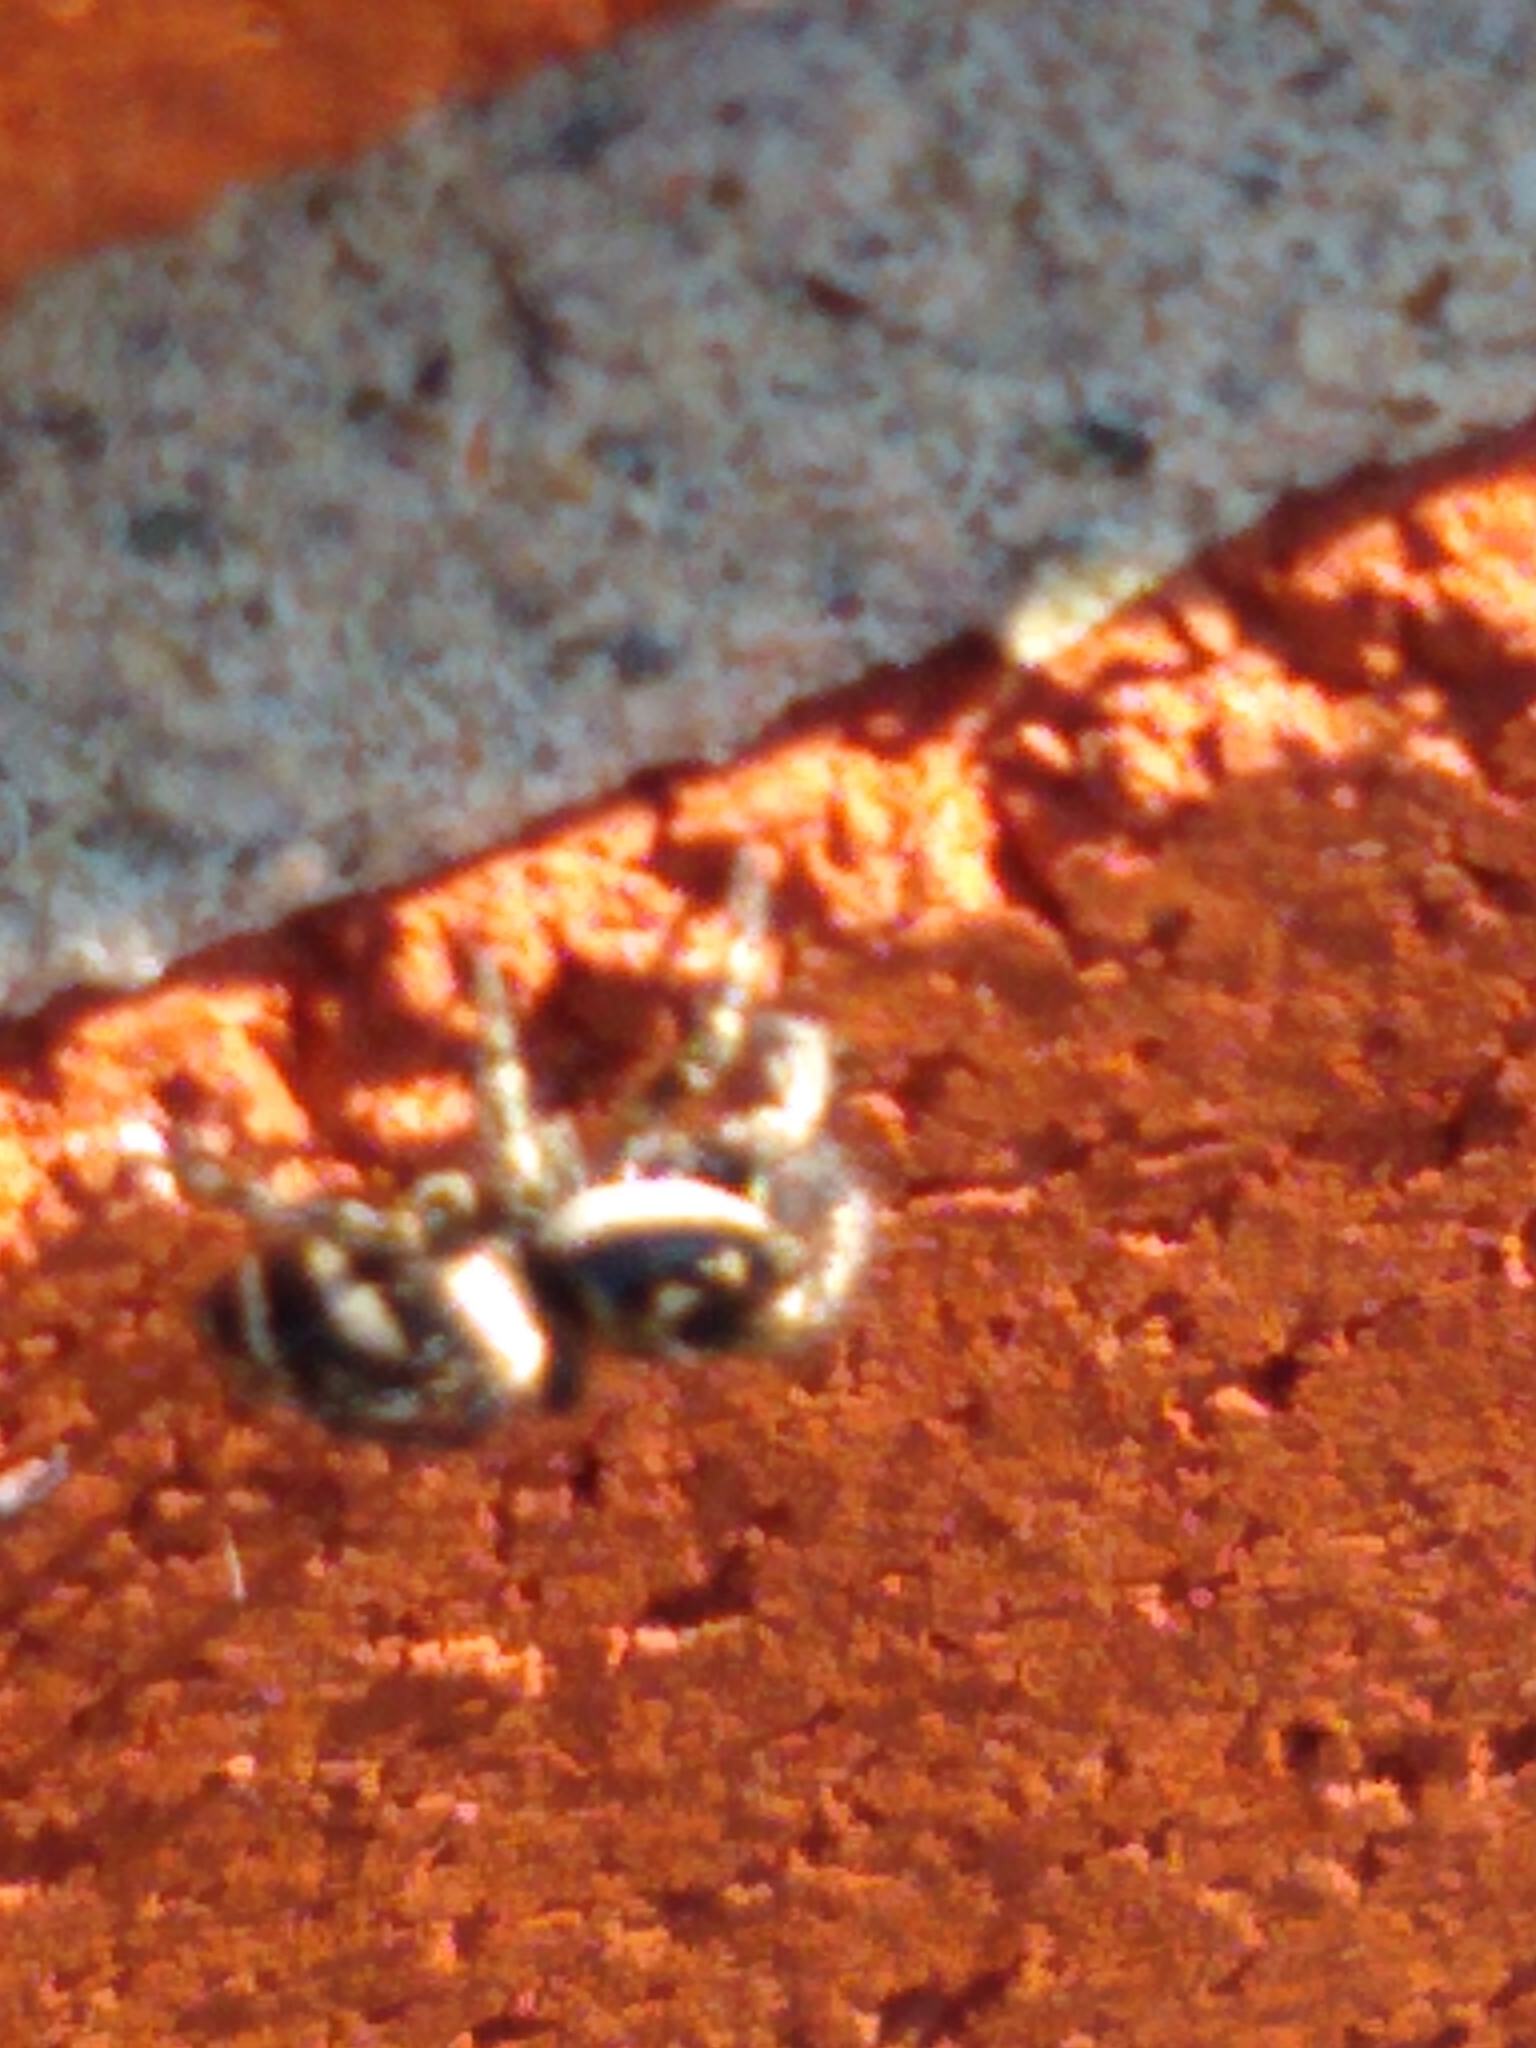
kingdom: Animalia
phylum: Arthropoda
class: Arachnida
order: Araneae
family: Salticidae
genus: Salticus
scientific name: Salticus scenicus
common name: Zebra jumper
